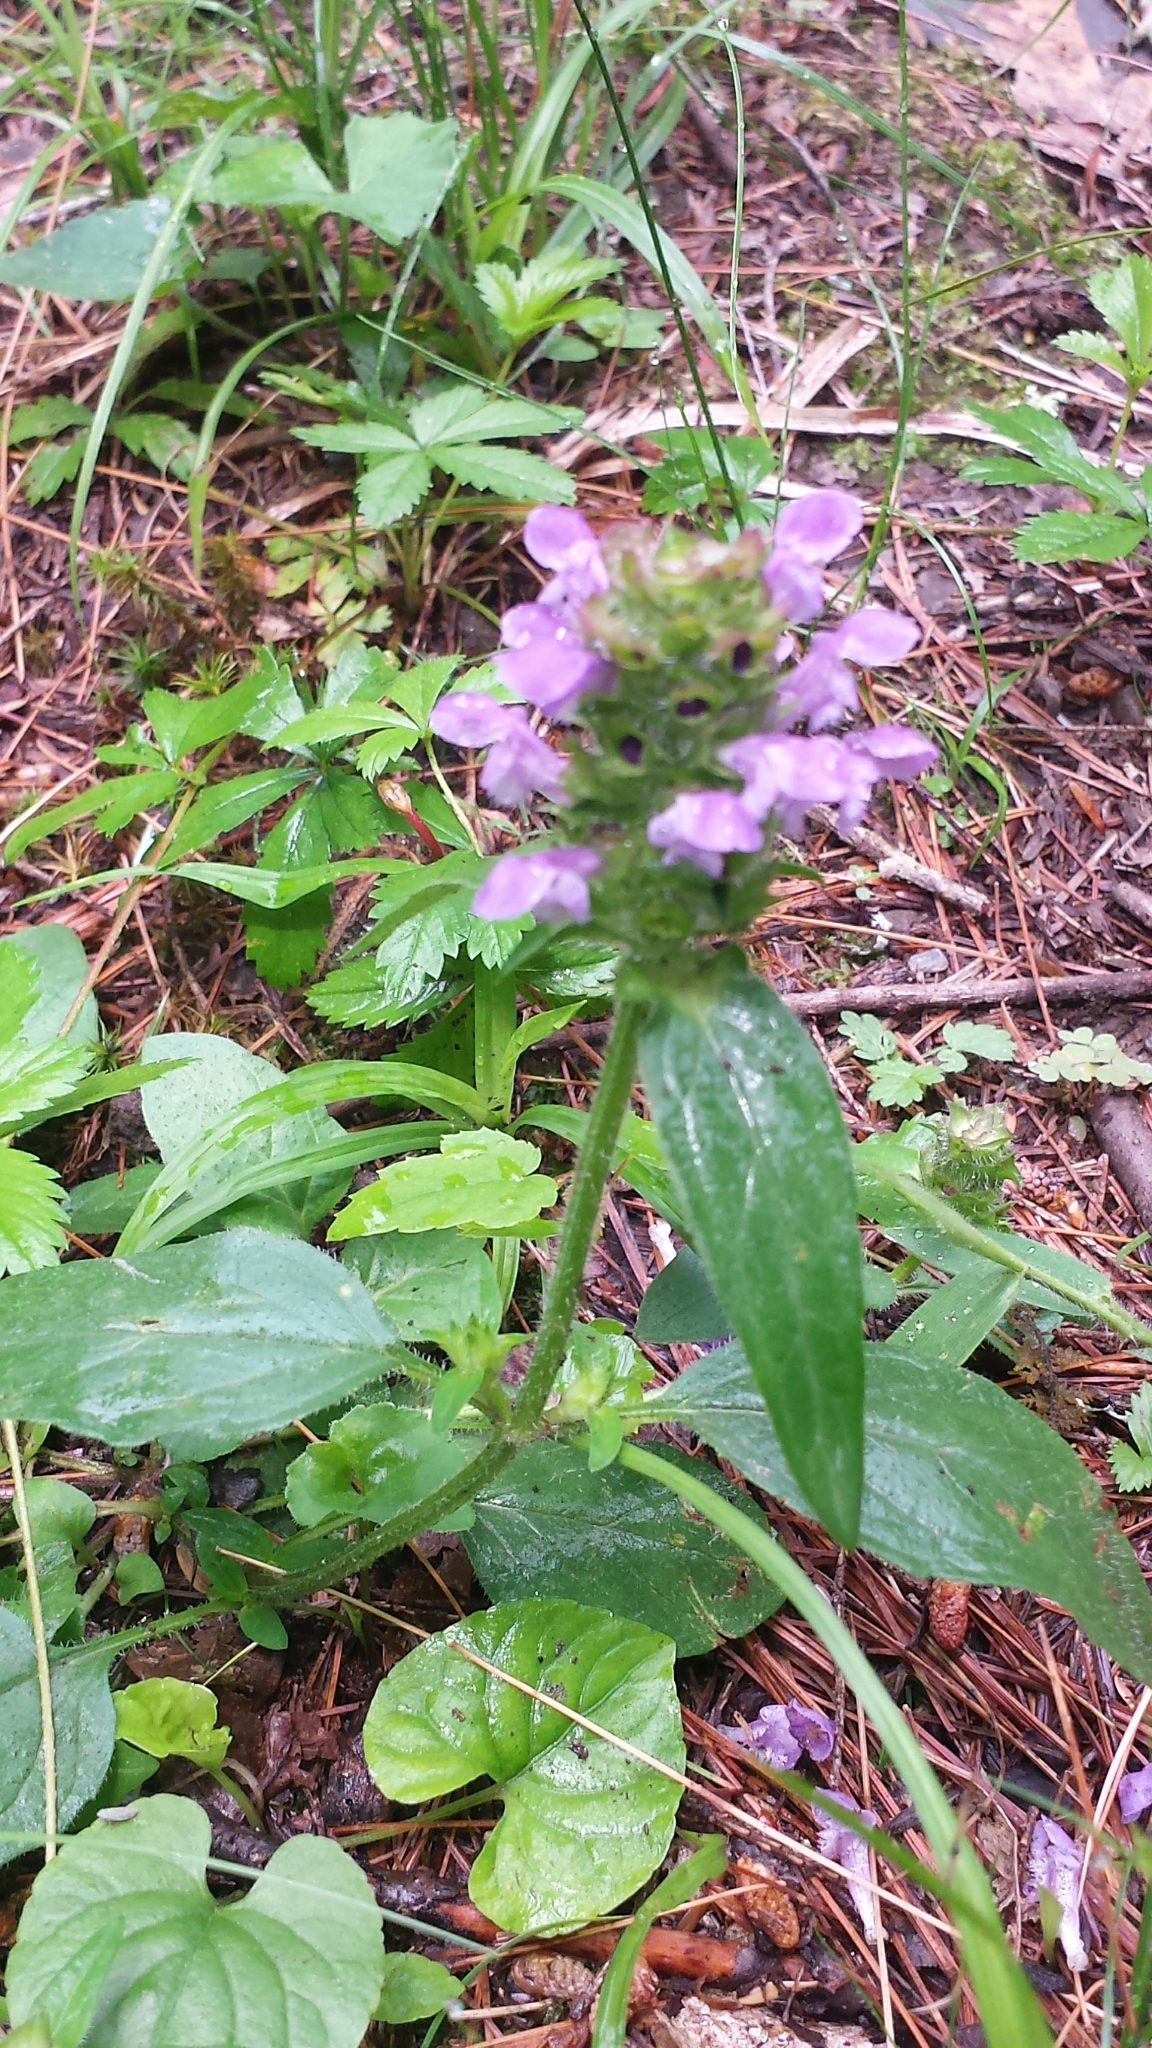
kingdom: Plantae
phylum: Tracheophyta
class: Magnoliopsida
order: Lamiales
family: Lamiaceae
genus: Prunella
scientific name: Prunella vulgaris
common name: Heal-all
